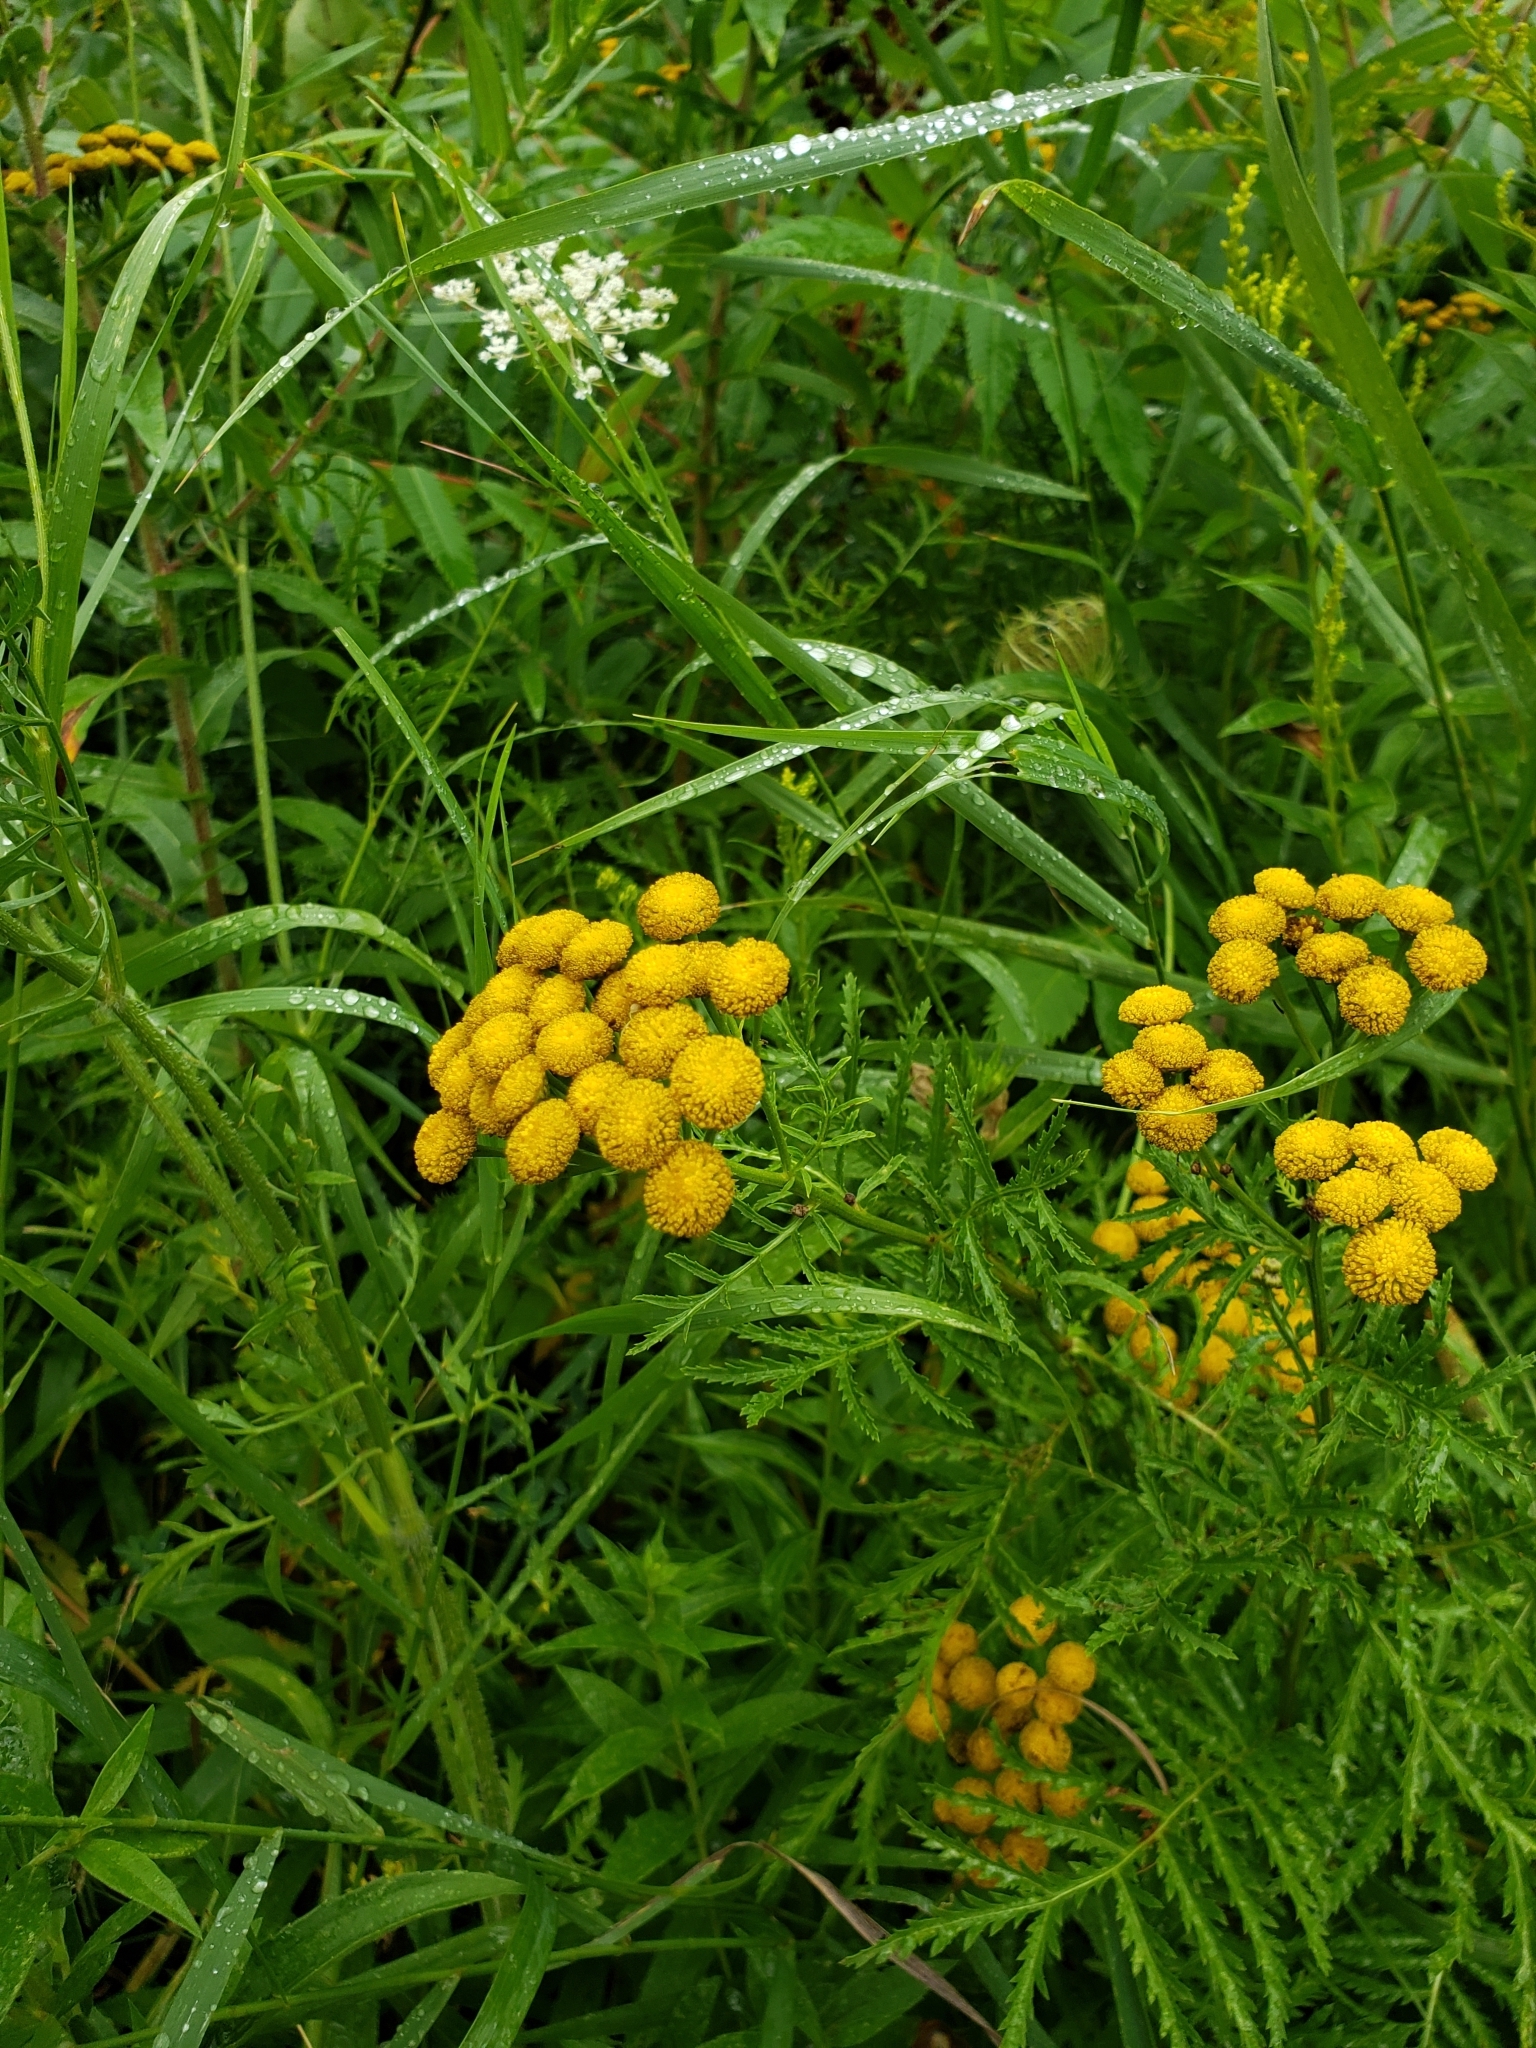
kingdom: Plantae
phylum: Tracheophyta
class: Magnoliopsida
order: Asterales
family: Asteraceae
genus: Tanacetum
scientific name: Tanacetum vulgare
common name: Common tansy
